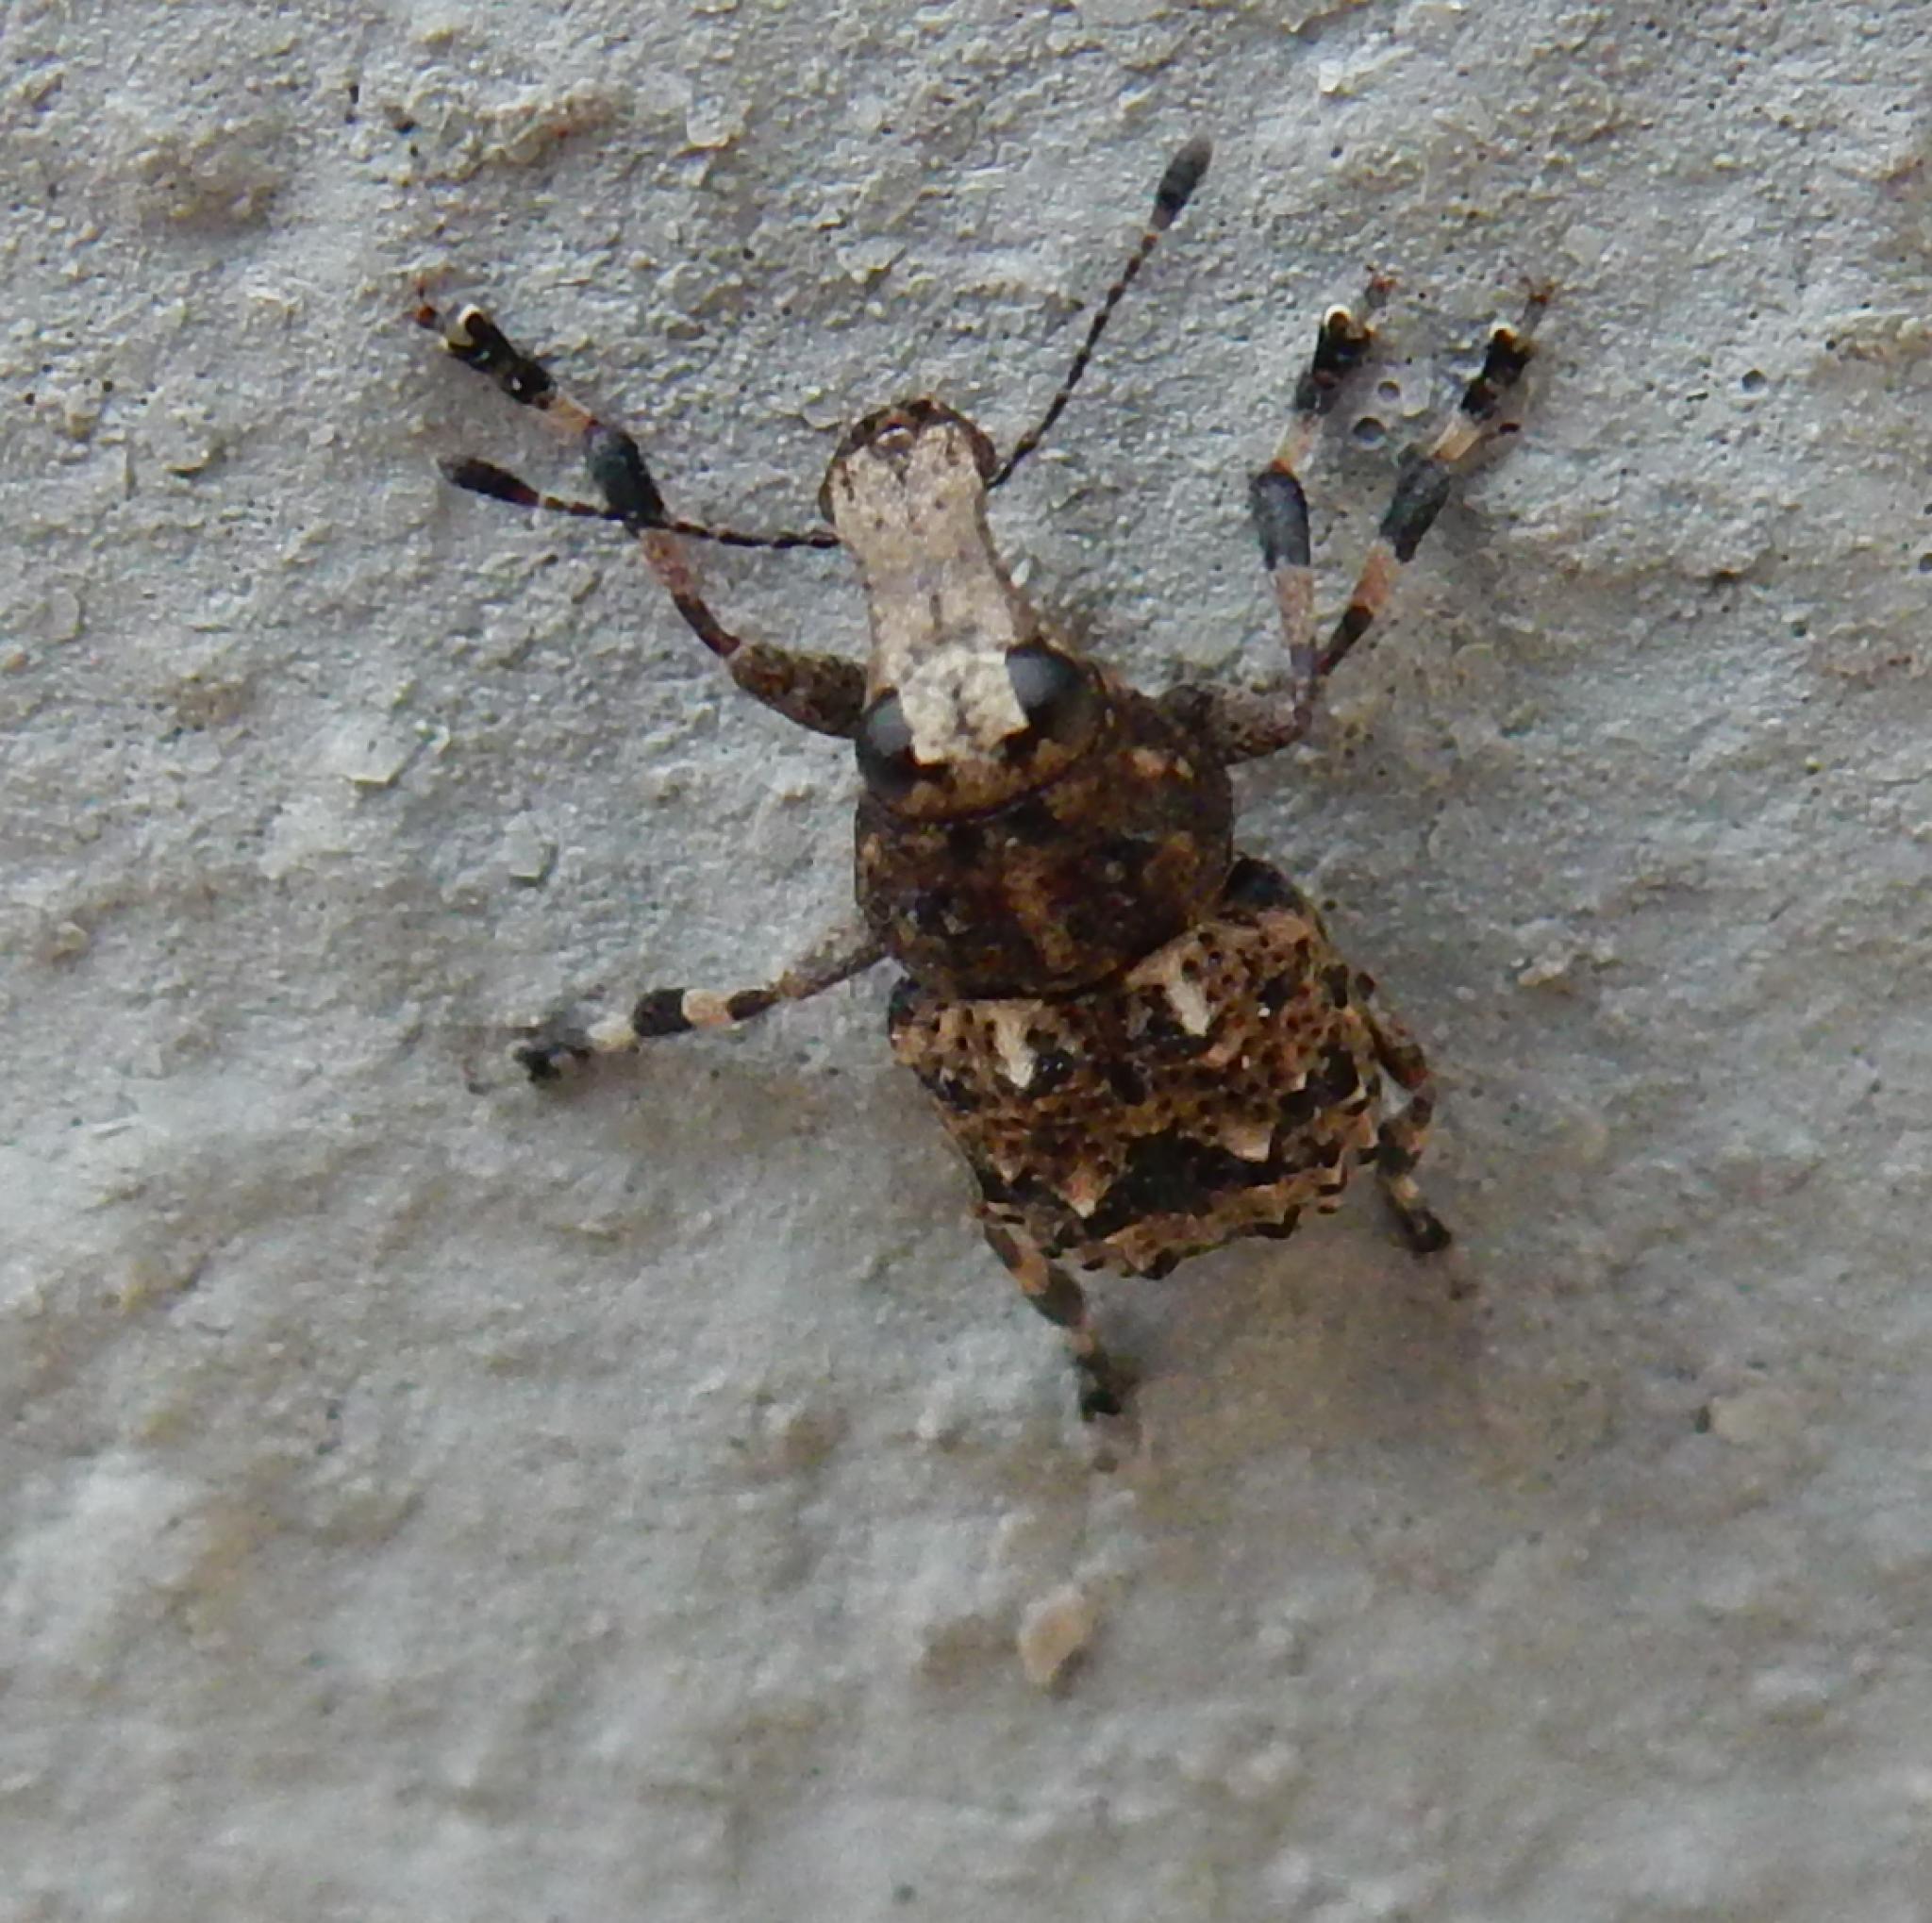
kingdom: Animalia
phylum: Arthropoda
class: Insecta
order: Coleoptera
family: Anthribidae
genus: Eurometopus
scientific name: Eurometopus pallidirostris
